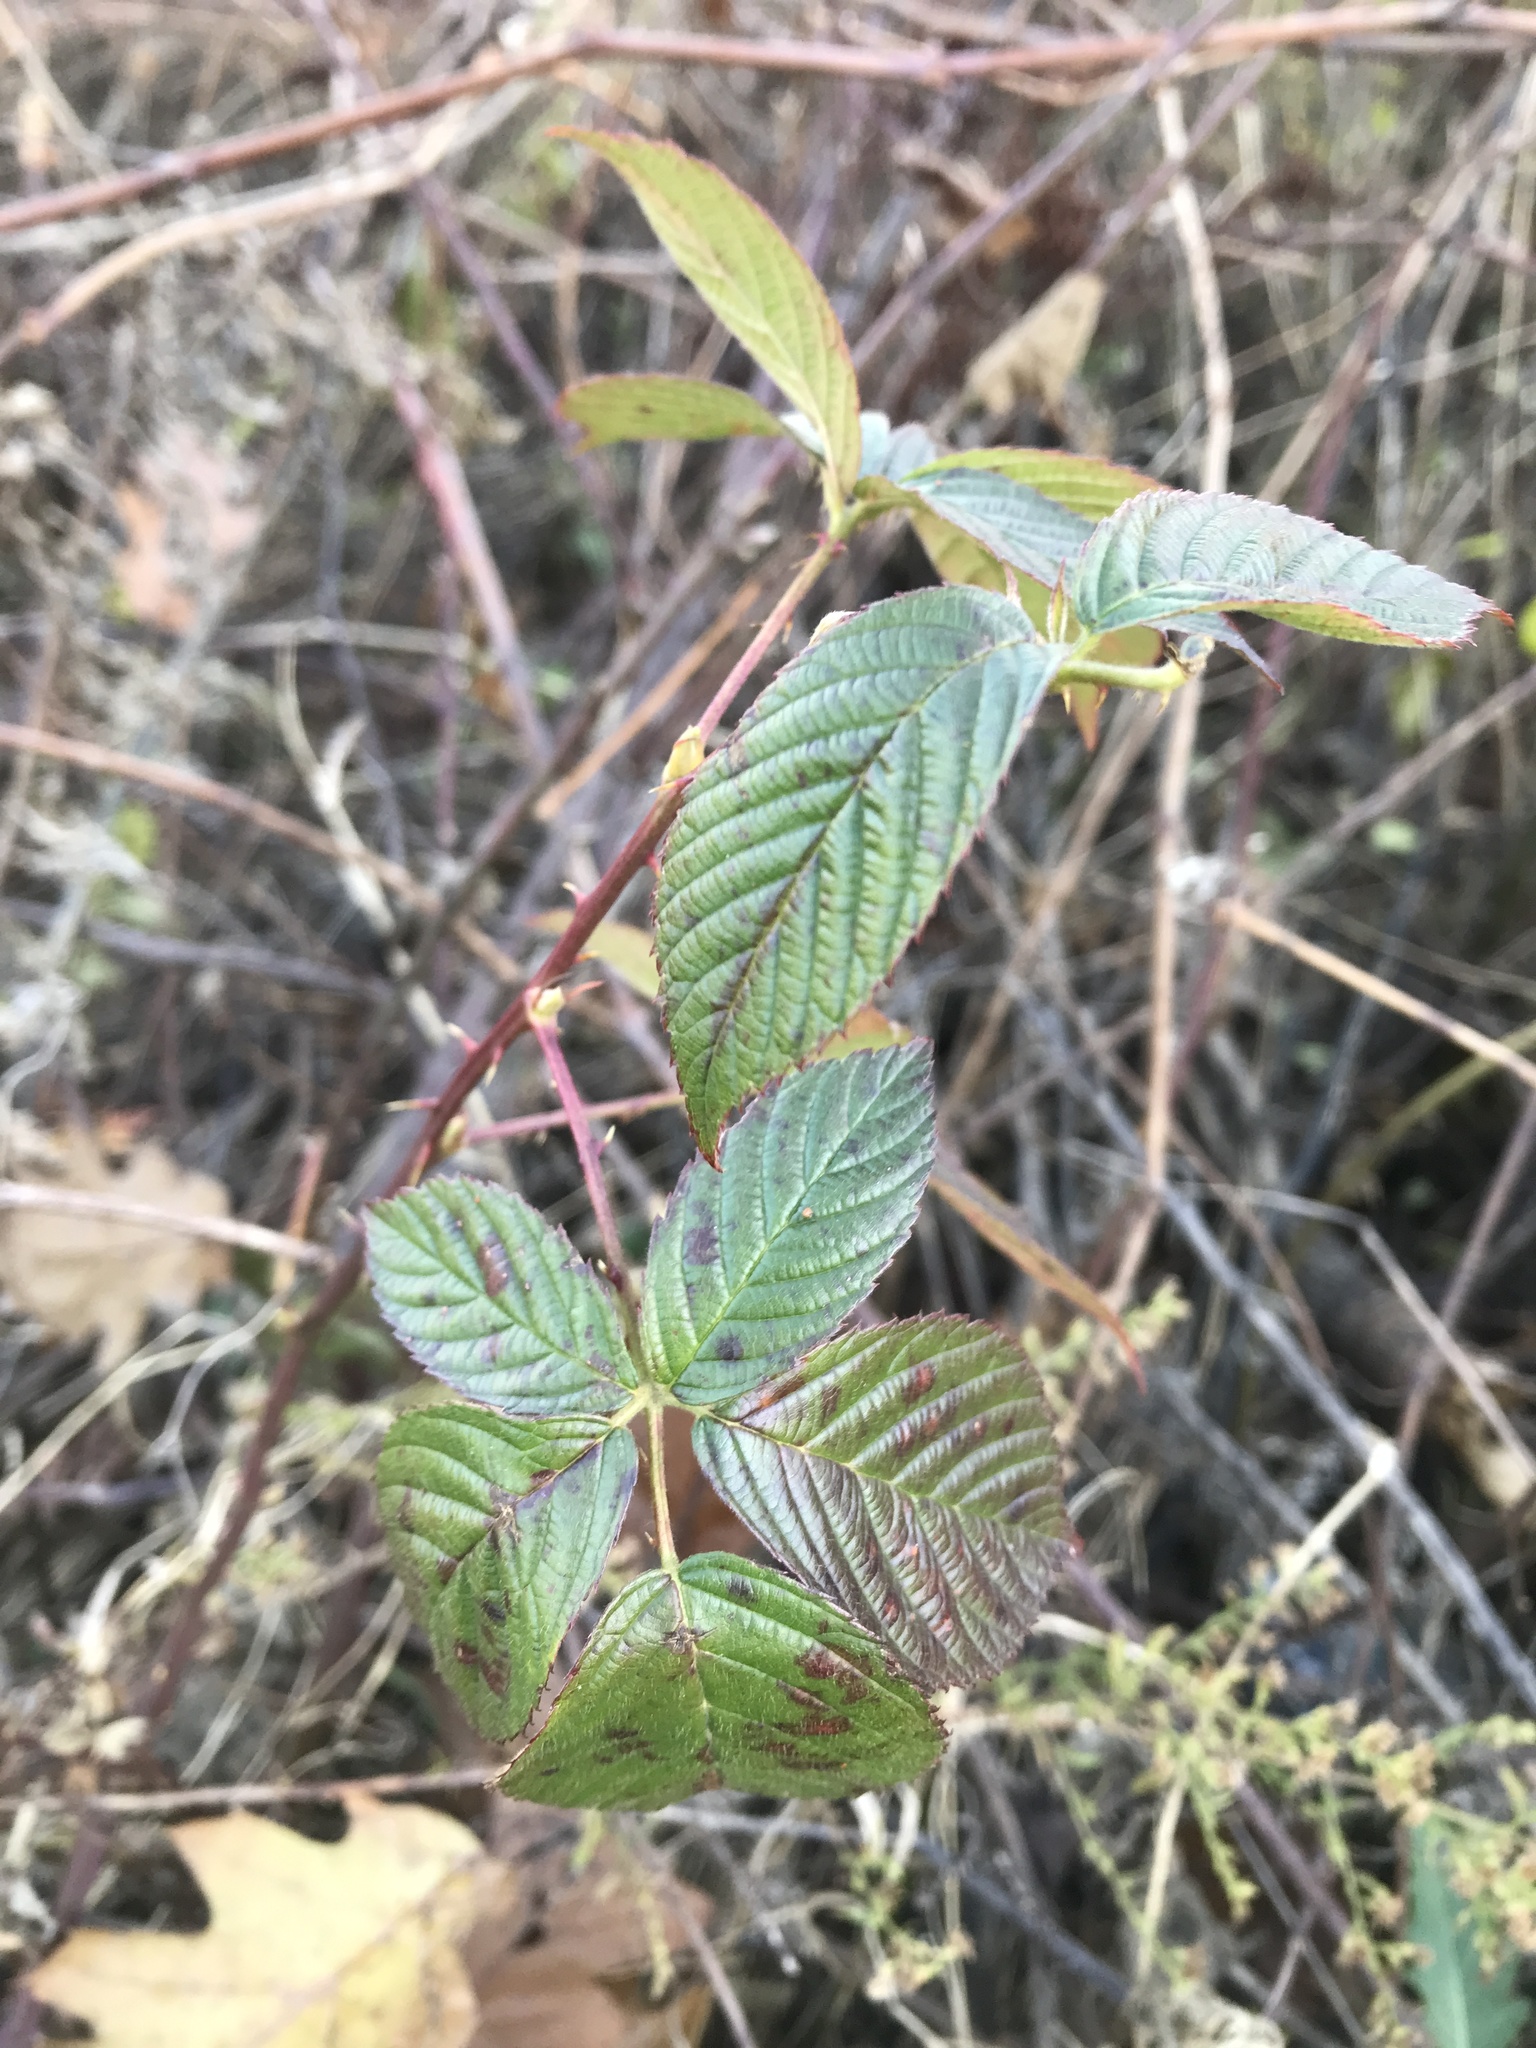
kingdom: Plantae
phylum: Tracheophyta
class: Magnoliopsida
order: Rosales
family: Rosaceae
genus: Rubus
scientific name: Rubus allegheniensis
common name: Allegheny blackberry
